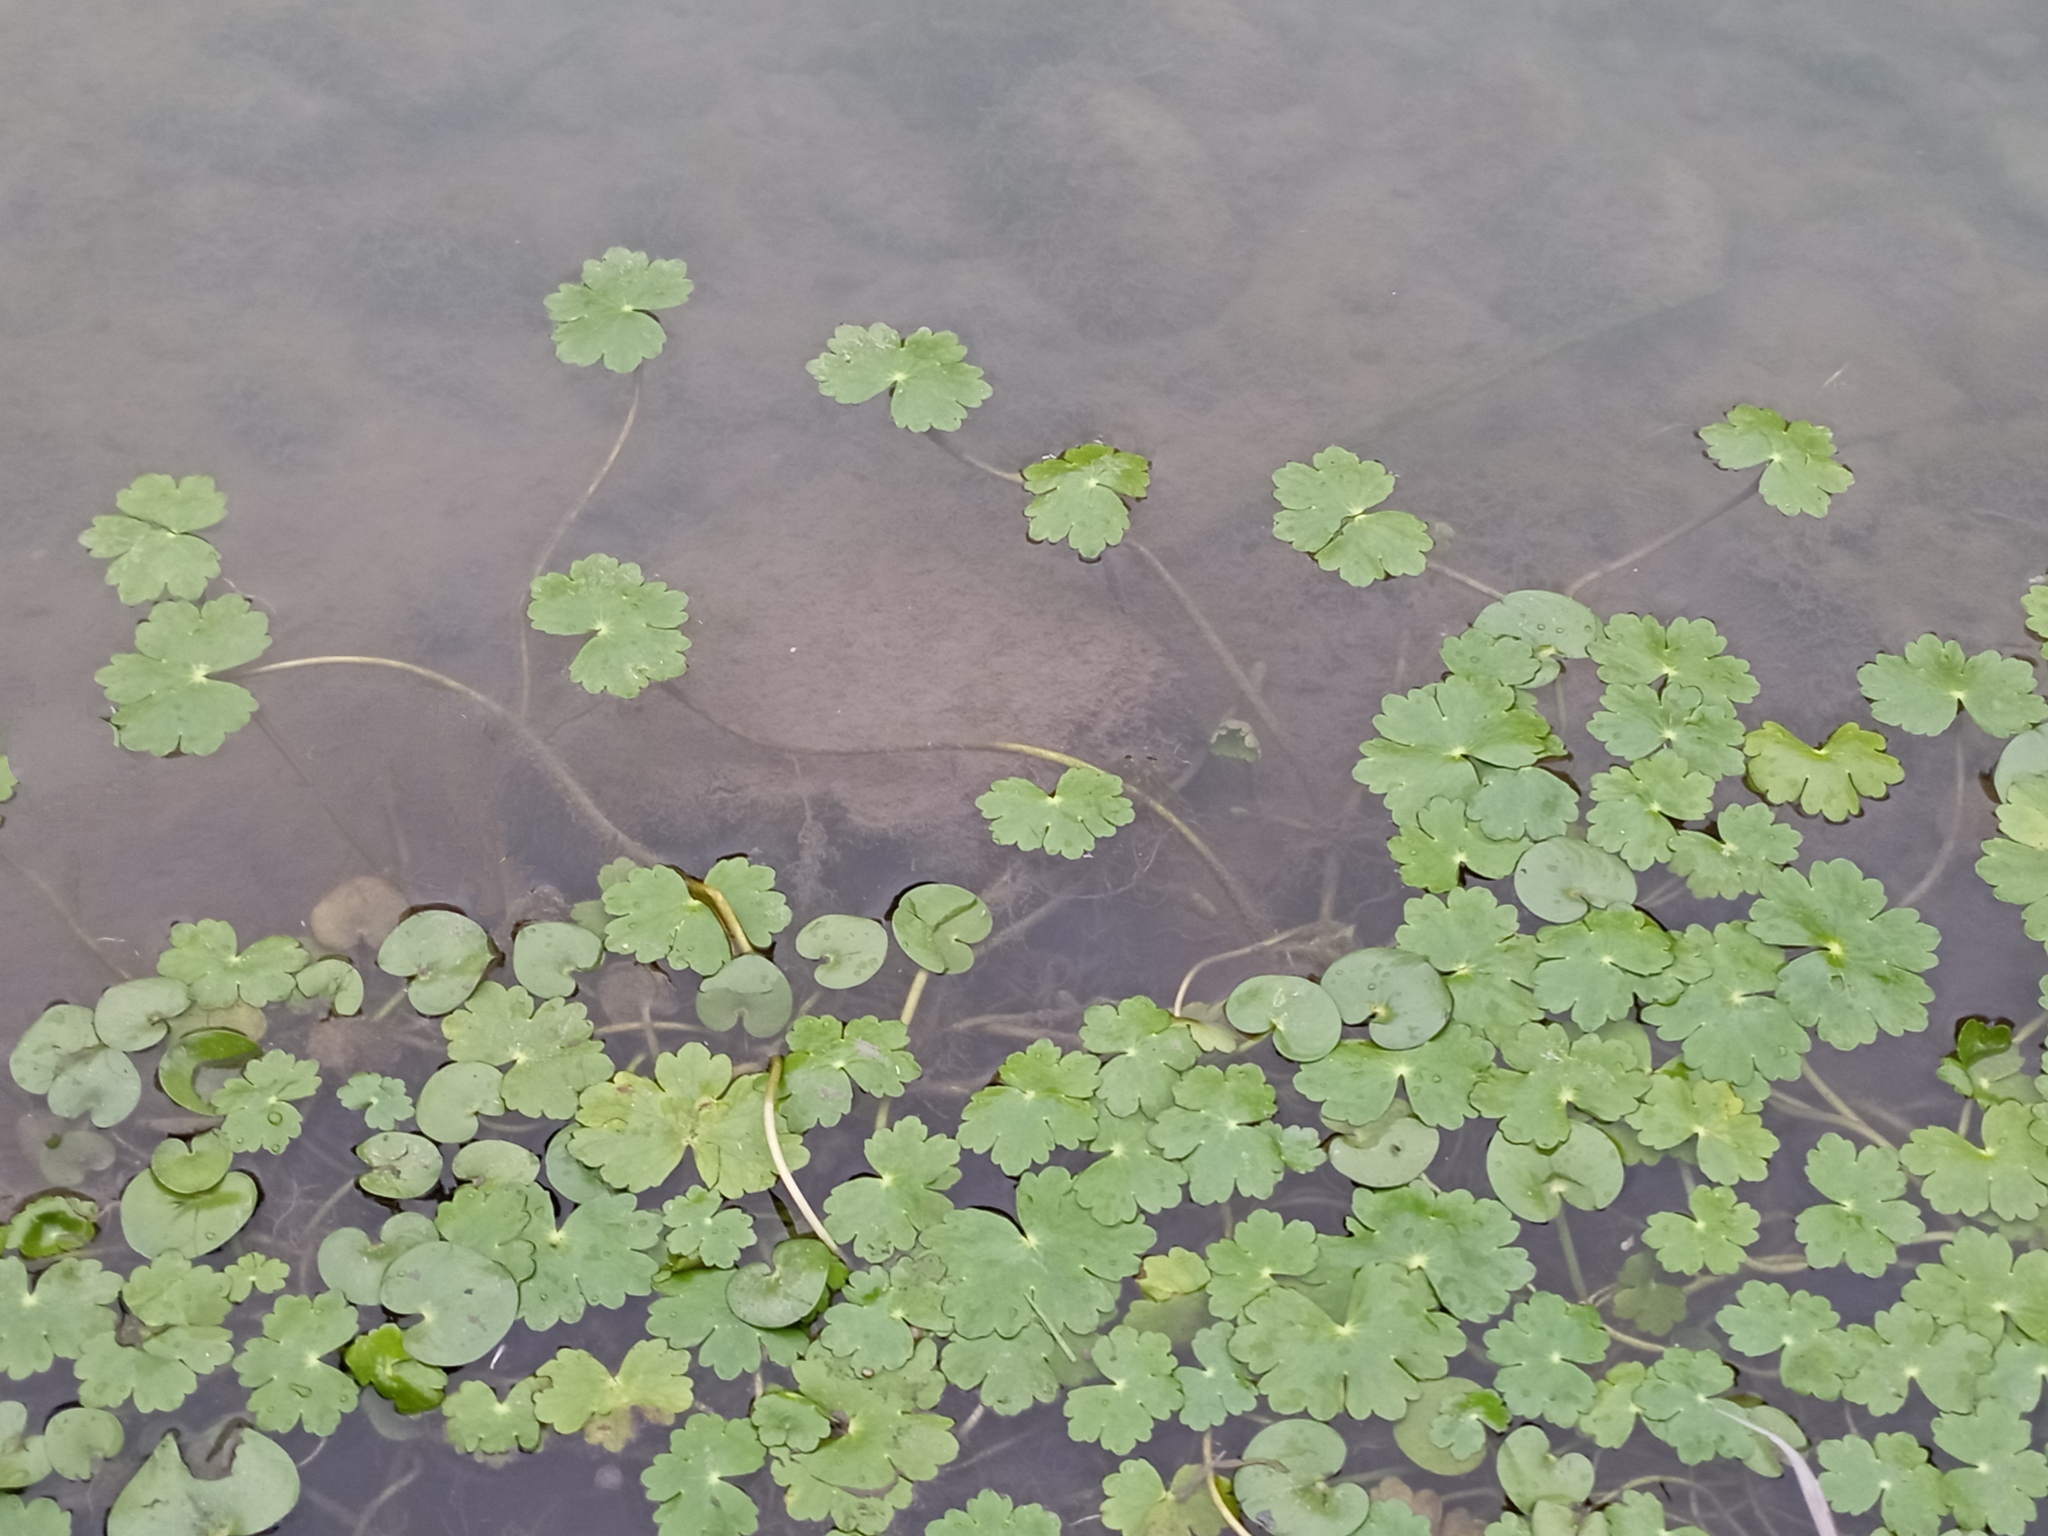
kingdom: Plantae
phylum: Tracheophyta
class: Magnoliopsida
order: Apiales
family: Araliaceae
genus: Hydrocotyle
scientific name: Hydrocotyle ranunculoides
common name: Floating pennywort
